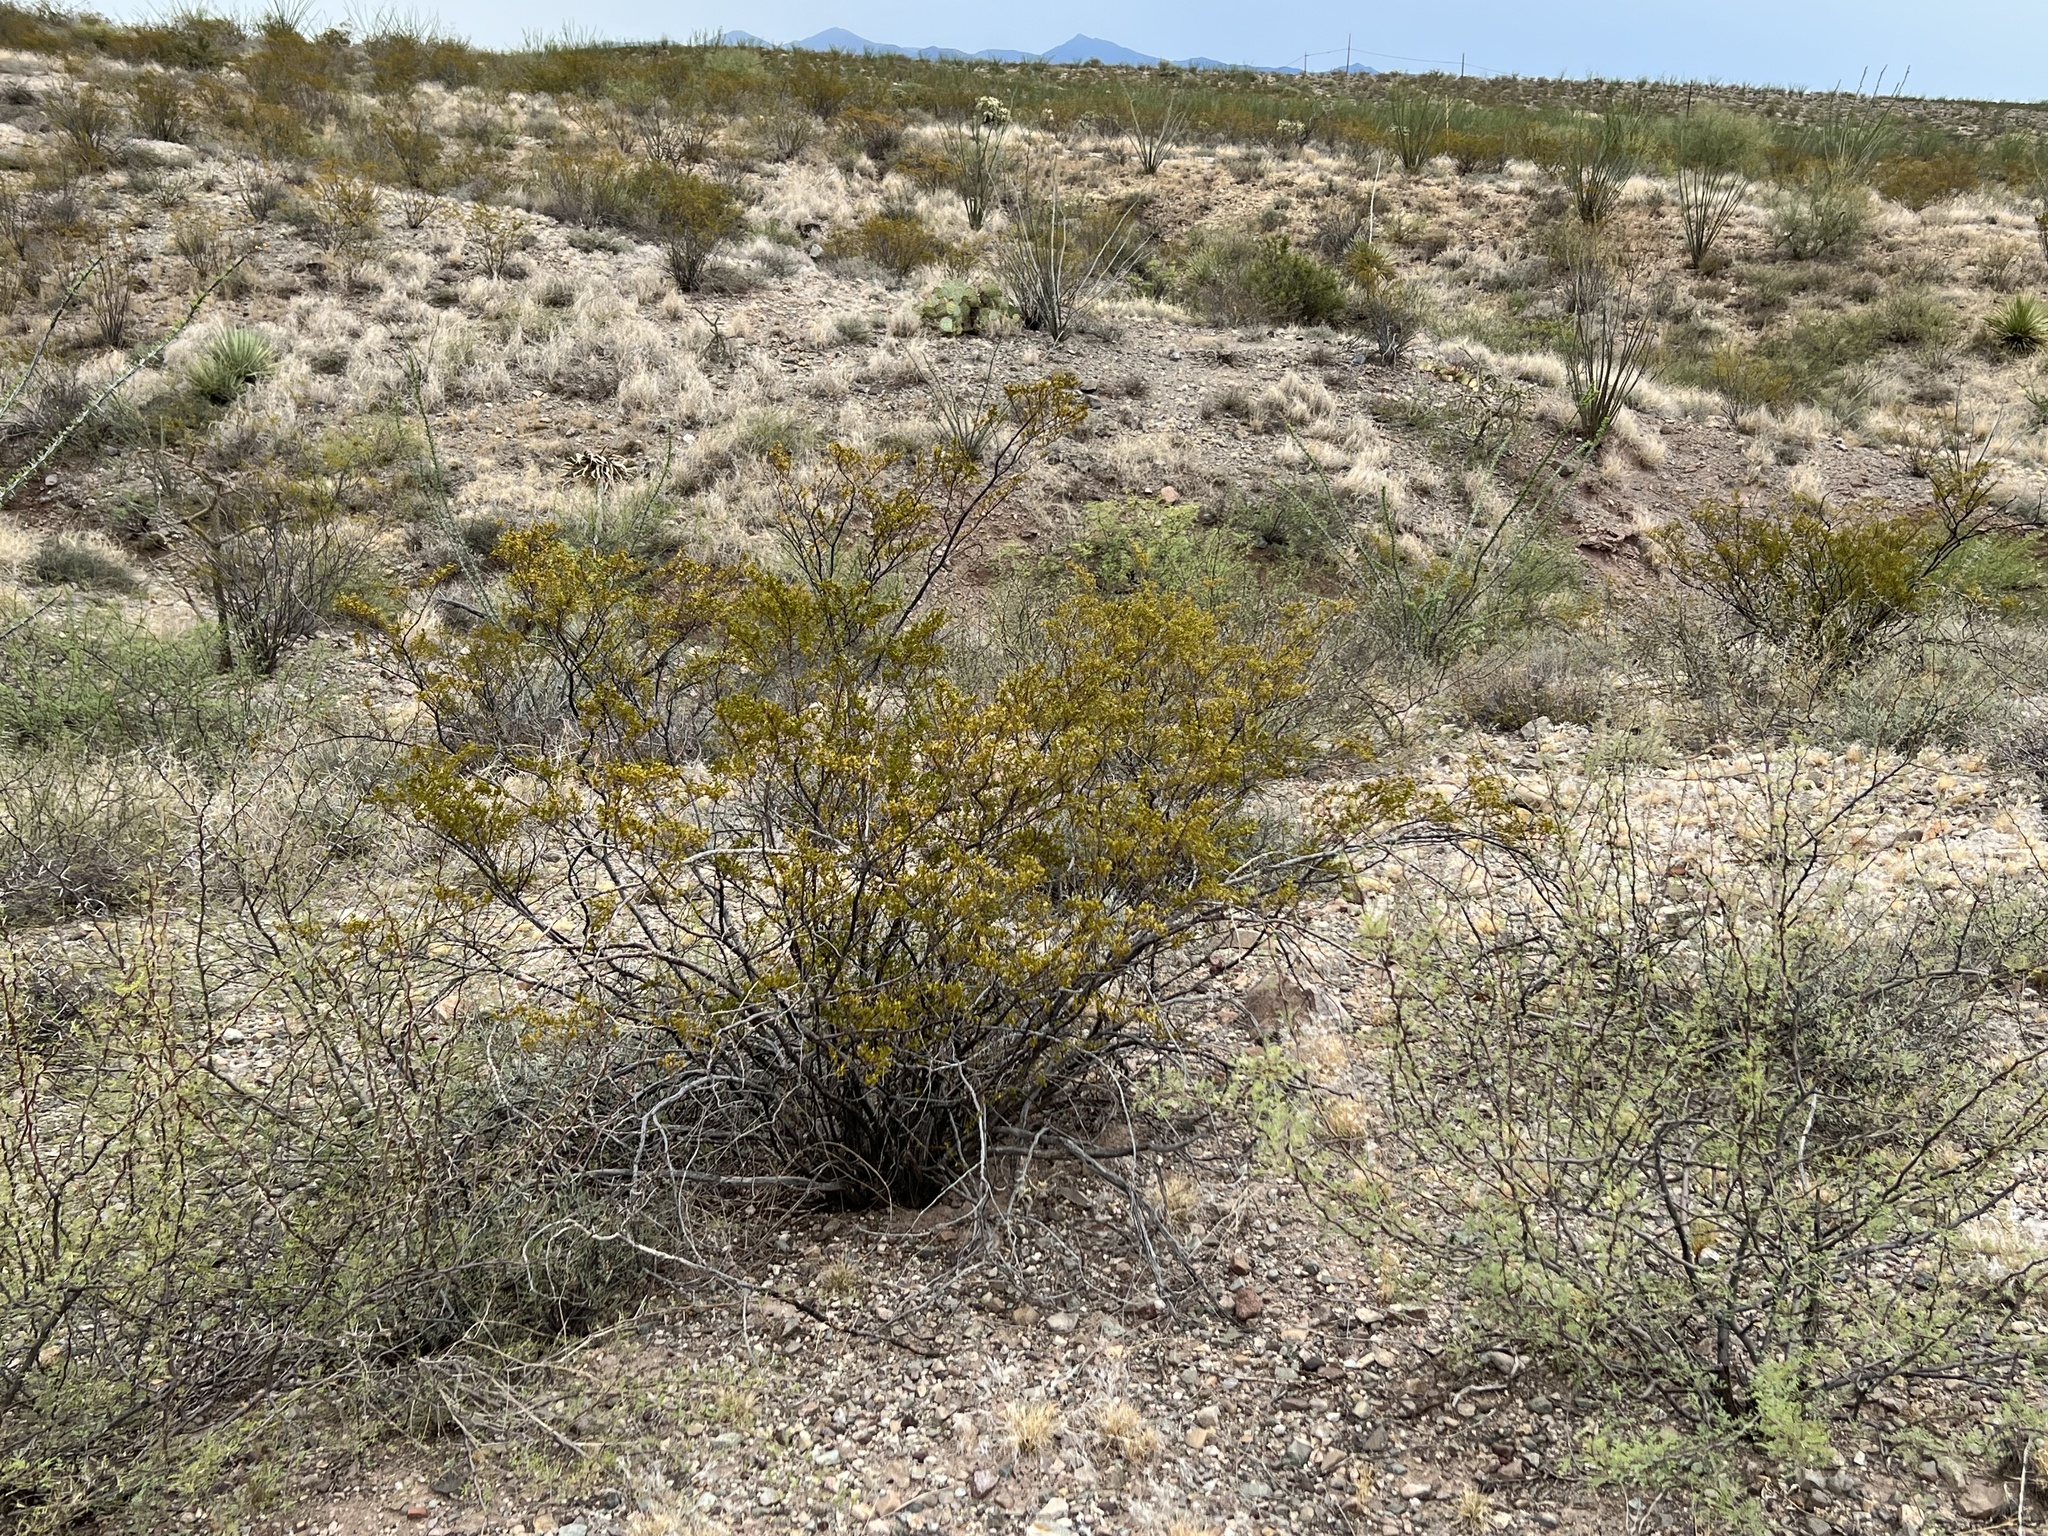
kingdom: Plantae
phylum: Tracheophyta
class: Magnoliopsida
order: Zygophyllales
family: Zygophyllaceae
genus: Larrea
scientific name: Larrea tridentata
